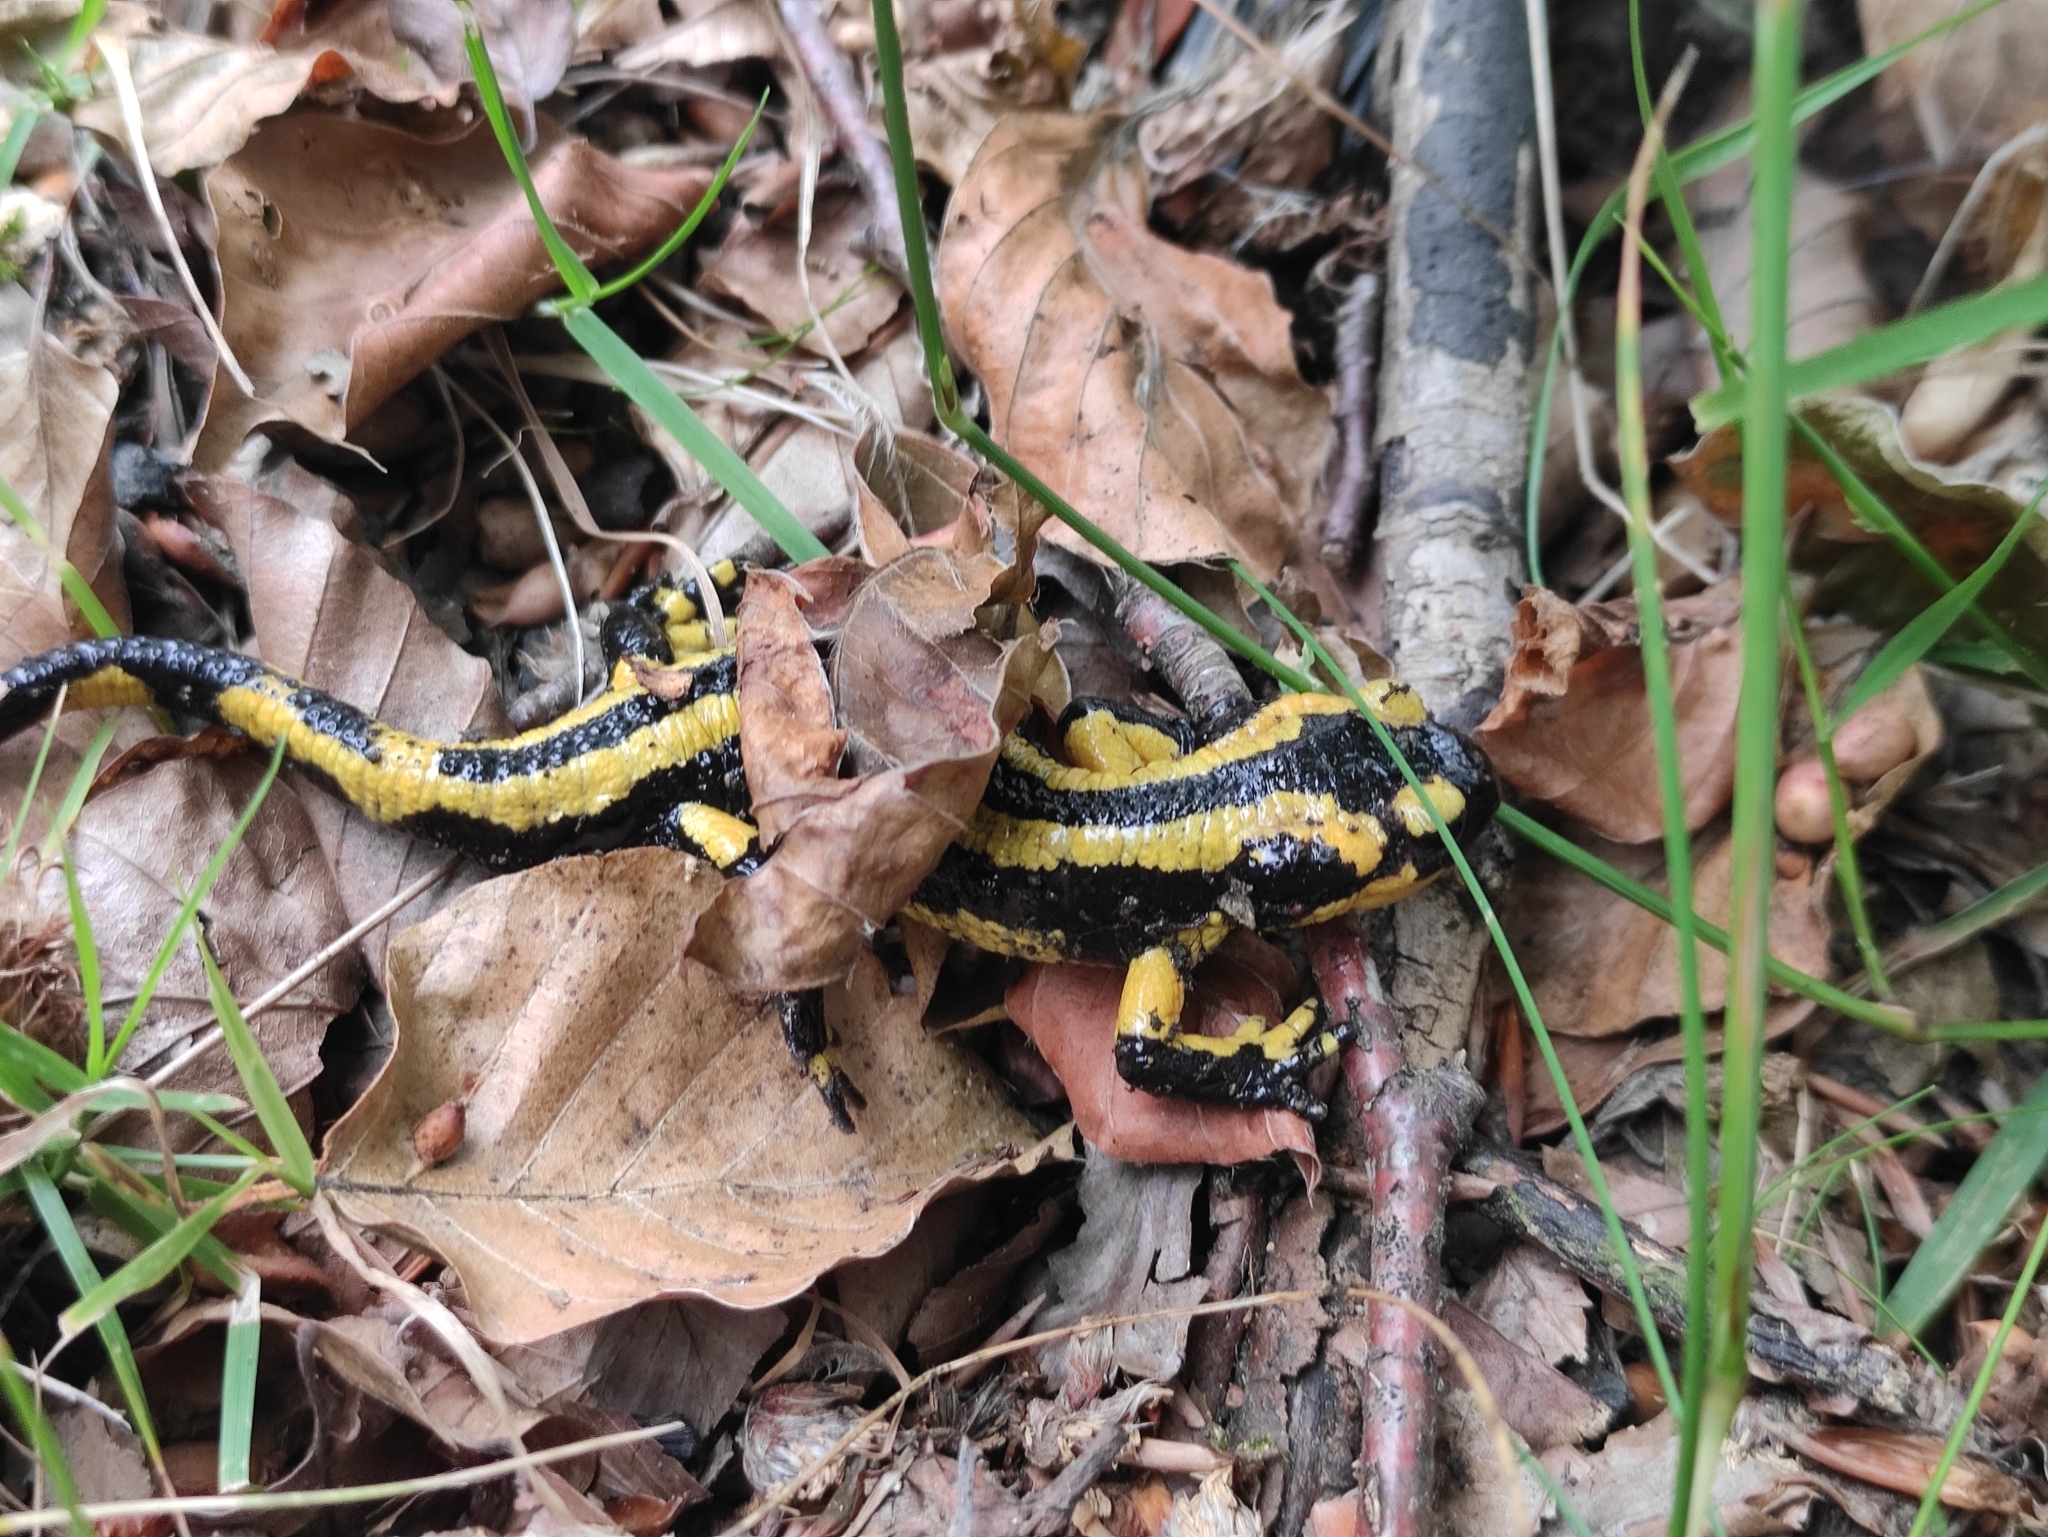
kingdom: Animalia
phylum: Chordata
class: Amphibia
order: Caudata
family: Salamandridae
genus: Salamandra
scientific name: Salamandra salamandra
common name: Fire salamander
